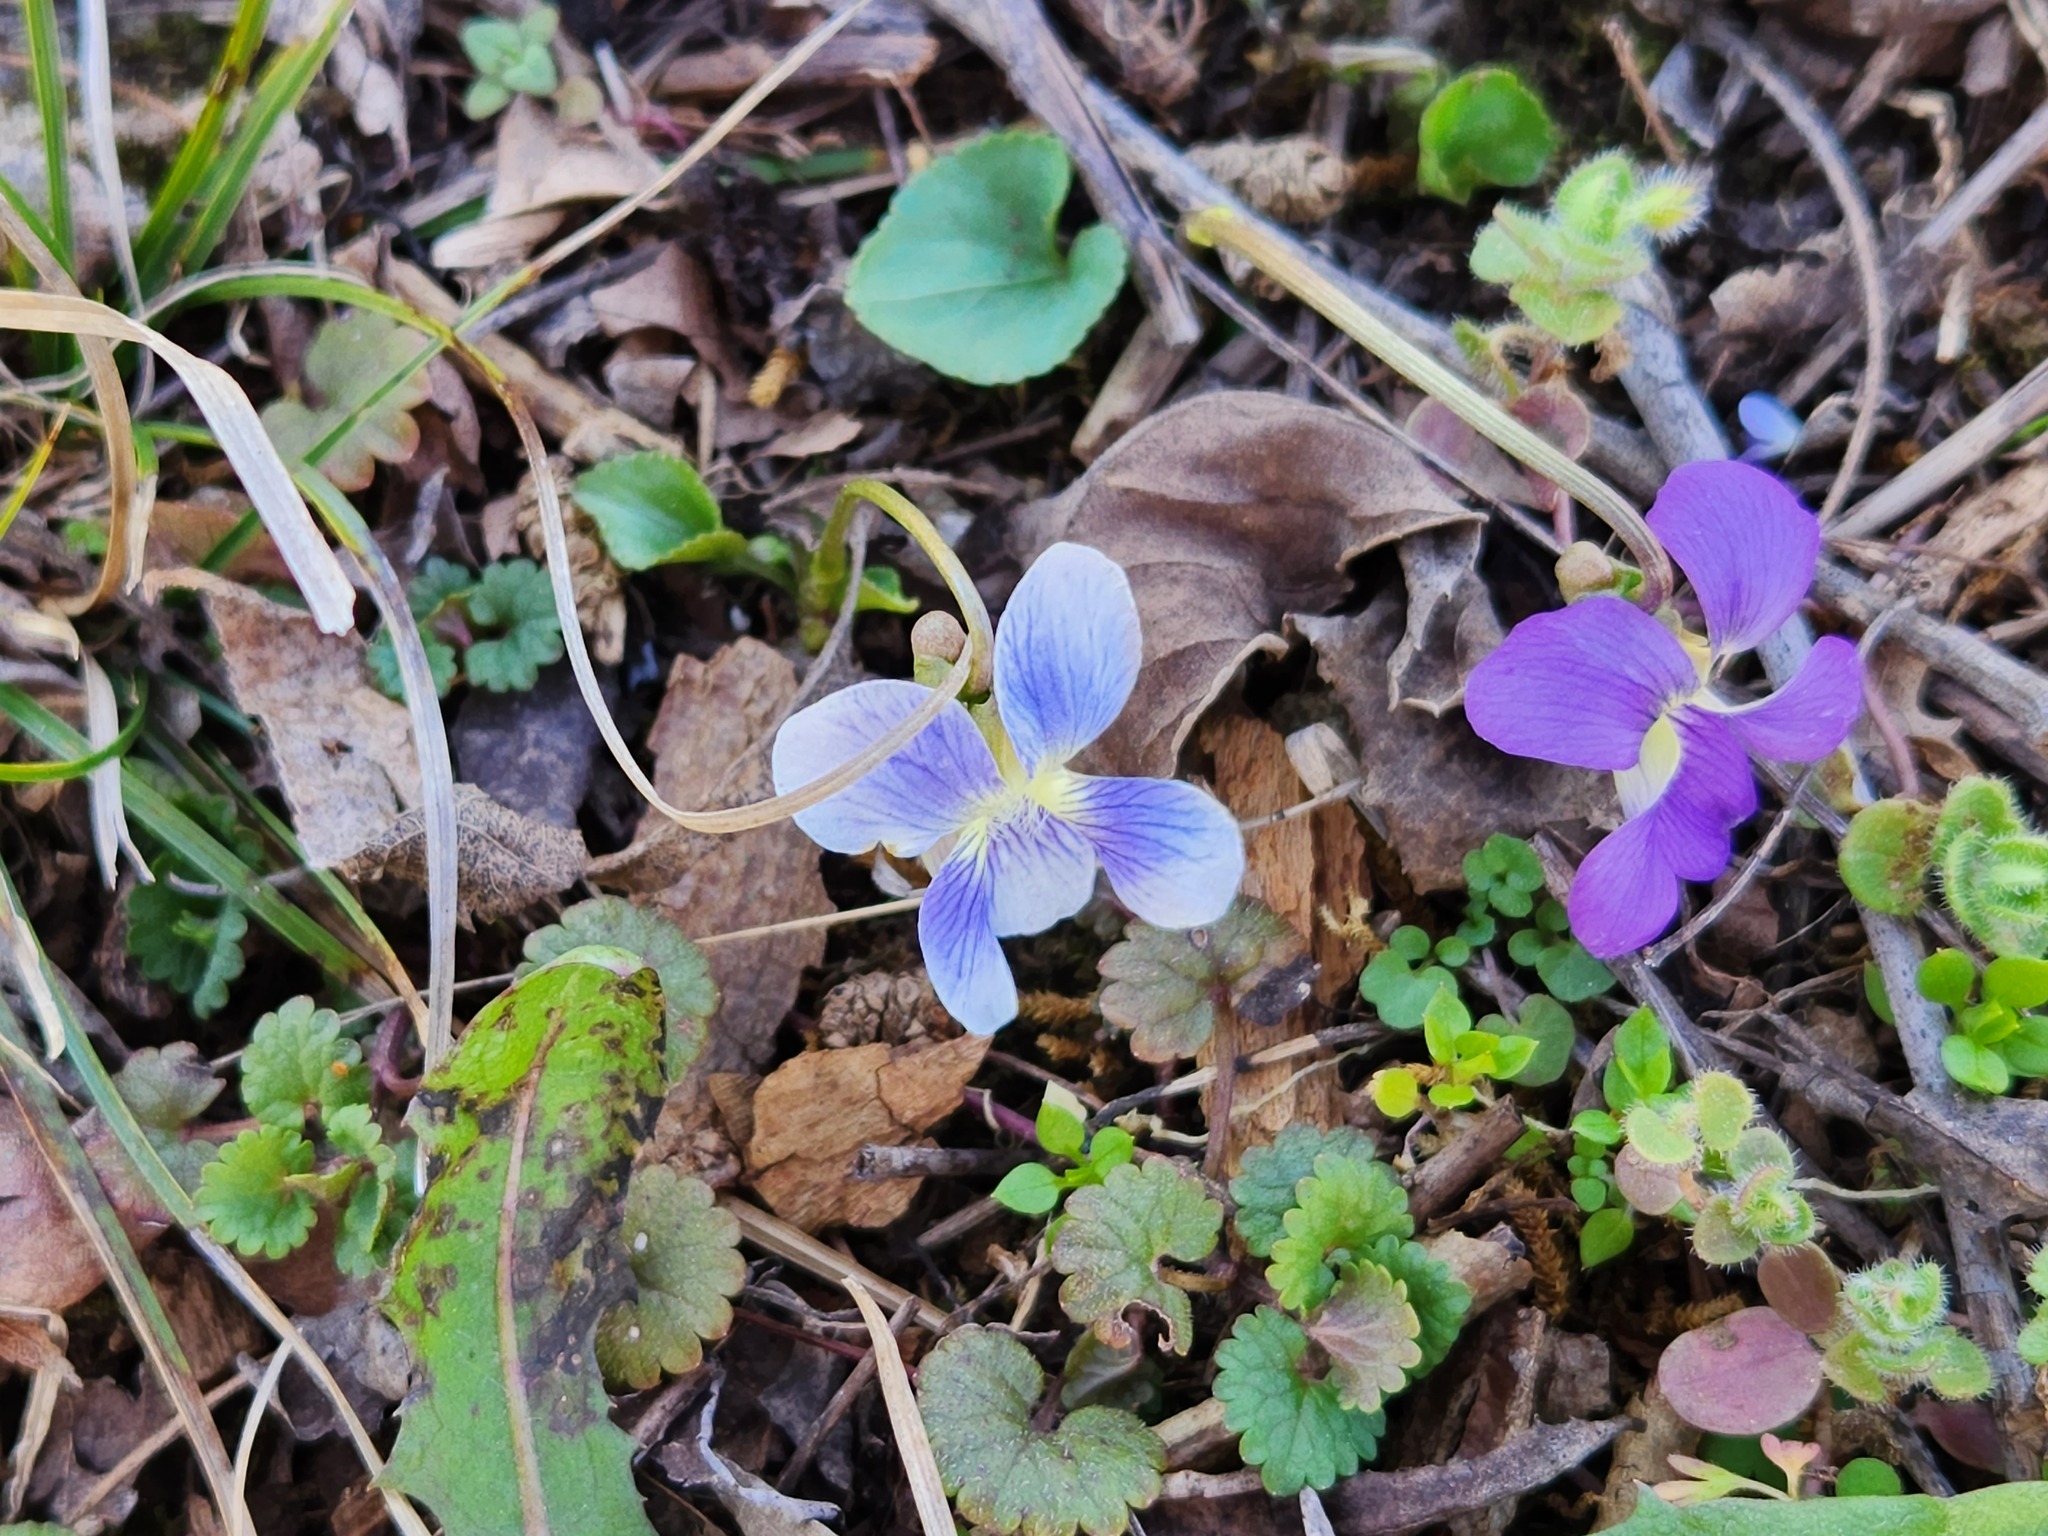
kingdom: Plantae
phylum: Tracheophyta
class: Magnoliopsida
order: Malpighiales
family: Violaceae
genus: Viola
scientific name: Viola sororia
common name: Dooryard violet
